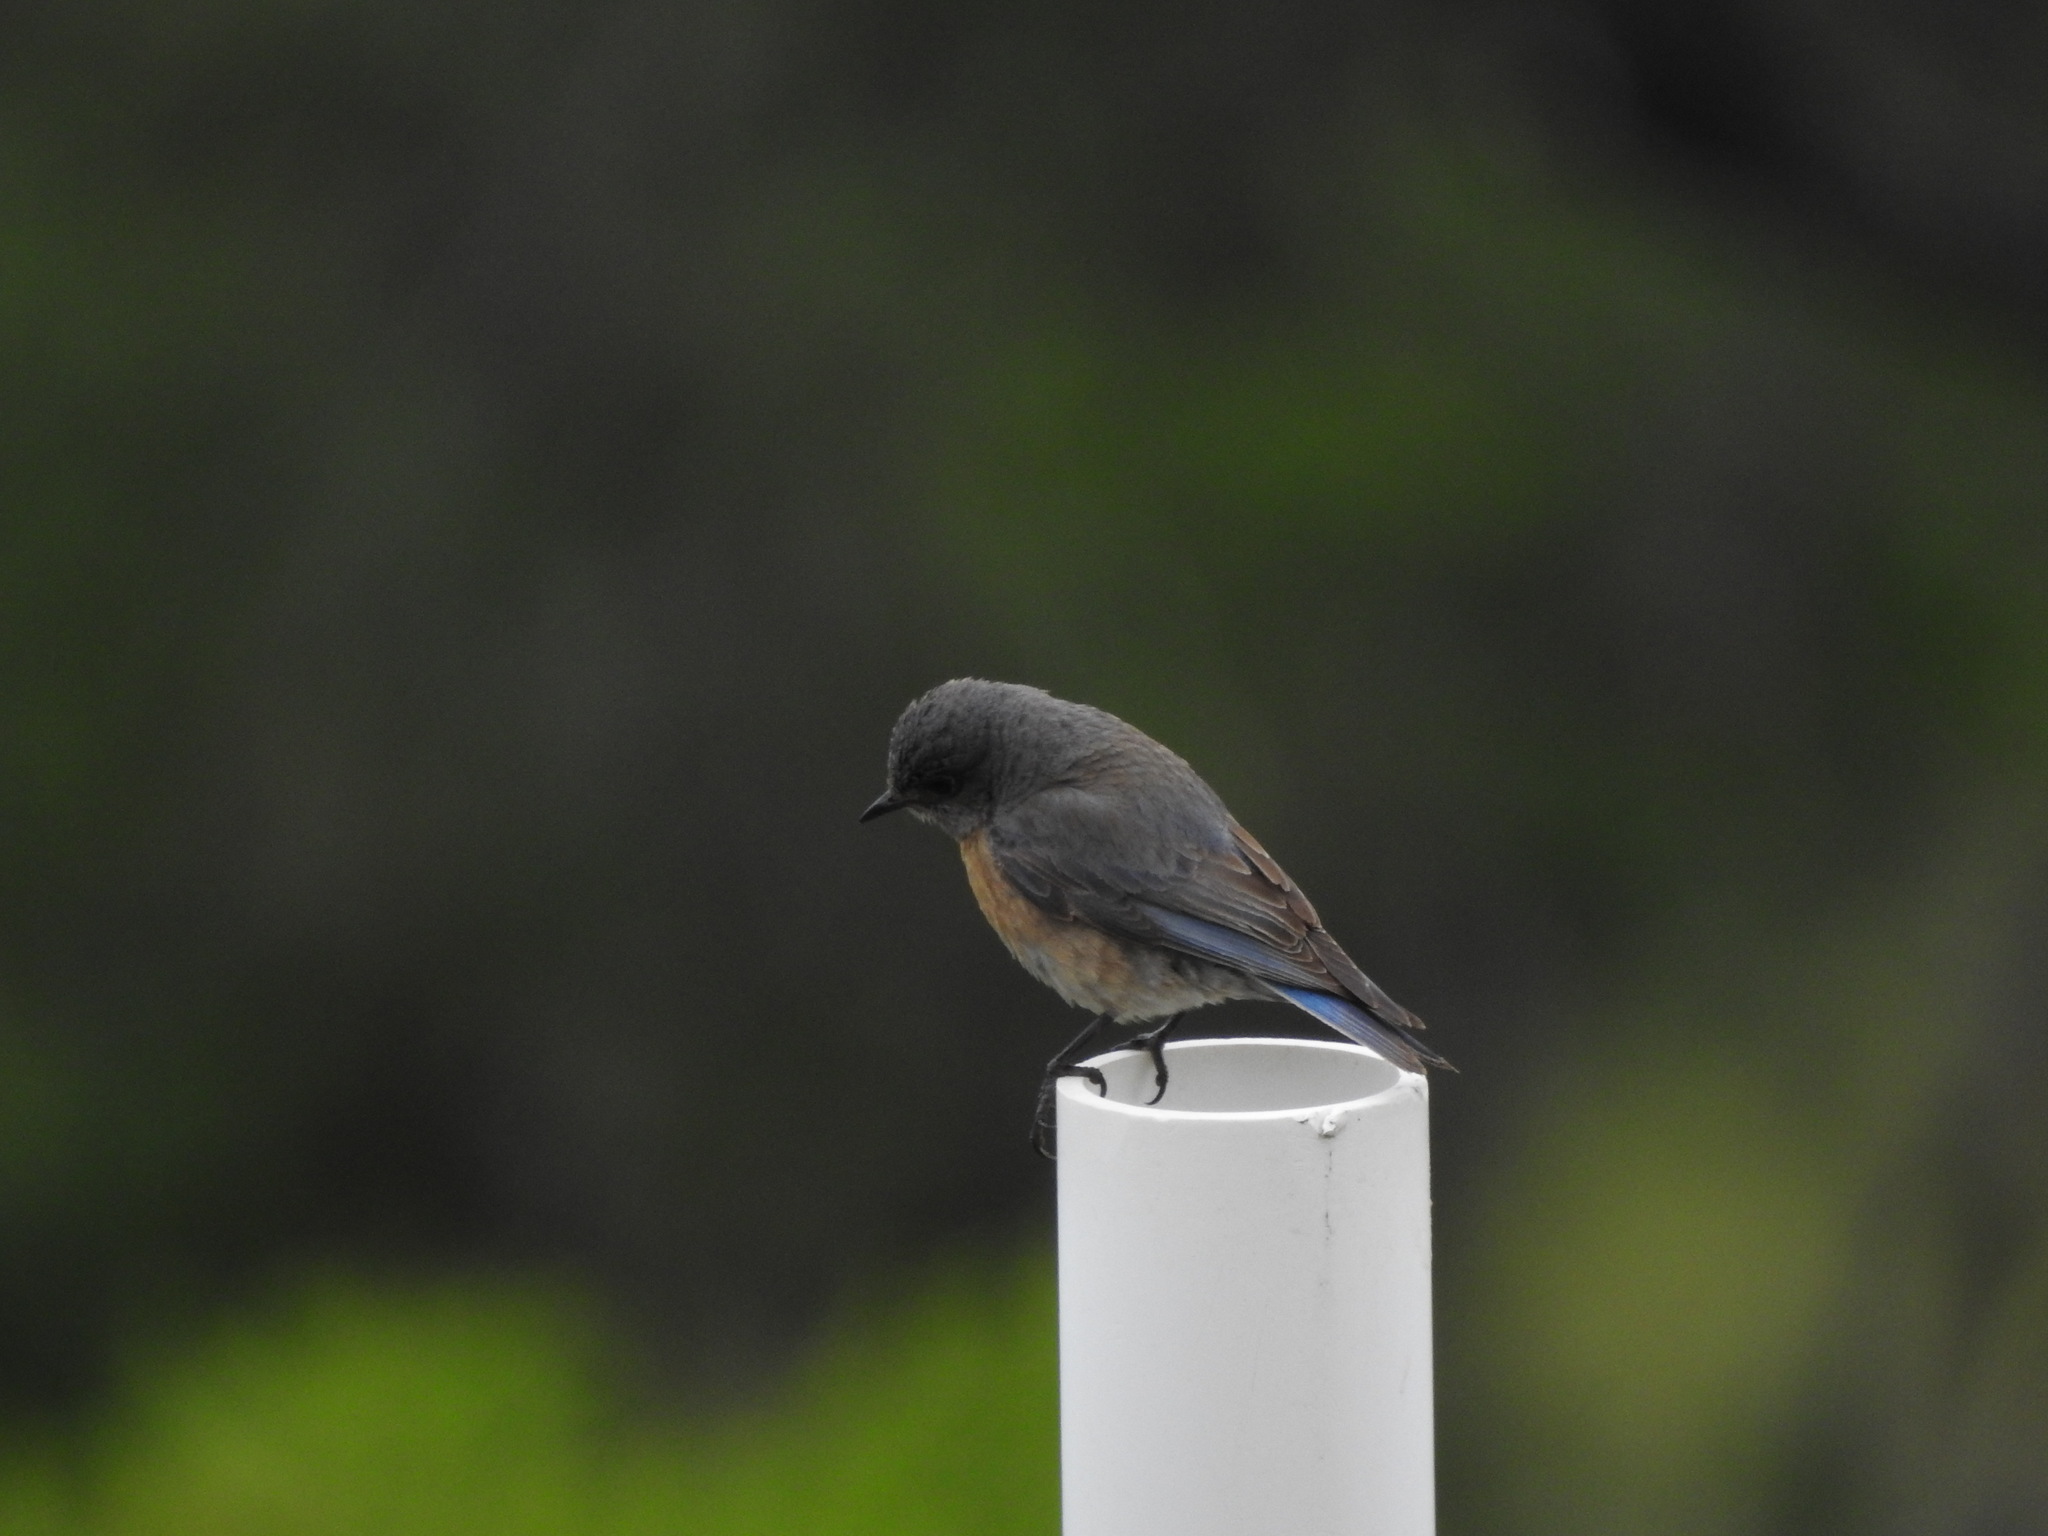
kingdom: Animalia
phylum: Chordata
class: Aves
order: Passeriformes
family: Turdidae
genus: Sialia
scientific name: Sialia mexicana
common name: Western bluebird
